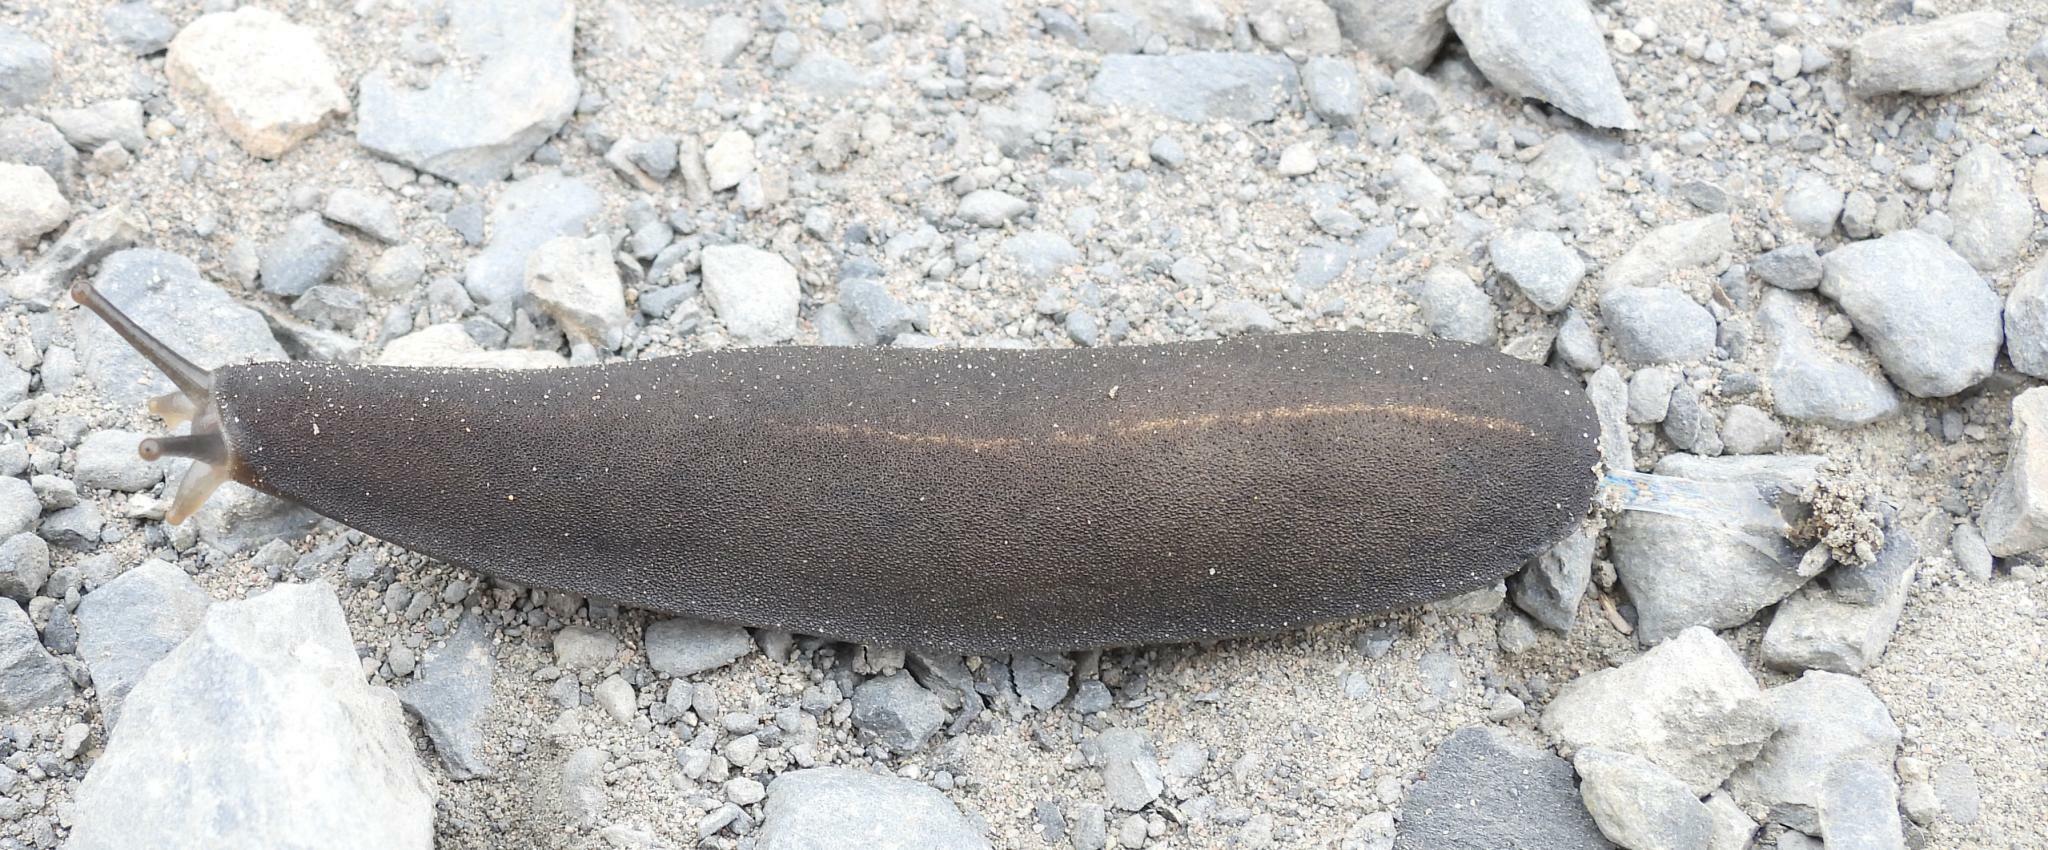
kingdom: Animalia
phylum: Mollusca
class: Gastropoda
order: Systellommatophora
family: Veronicellidae
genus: Laevicaulis
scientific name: Laevicaulis alte
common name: Tropical leatherleaf
